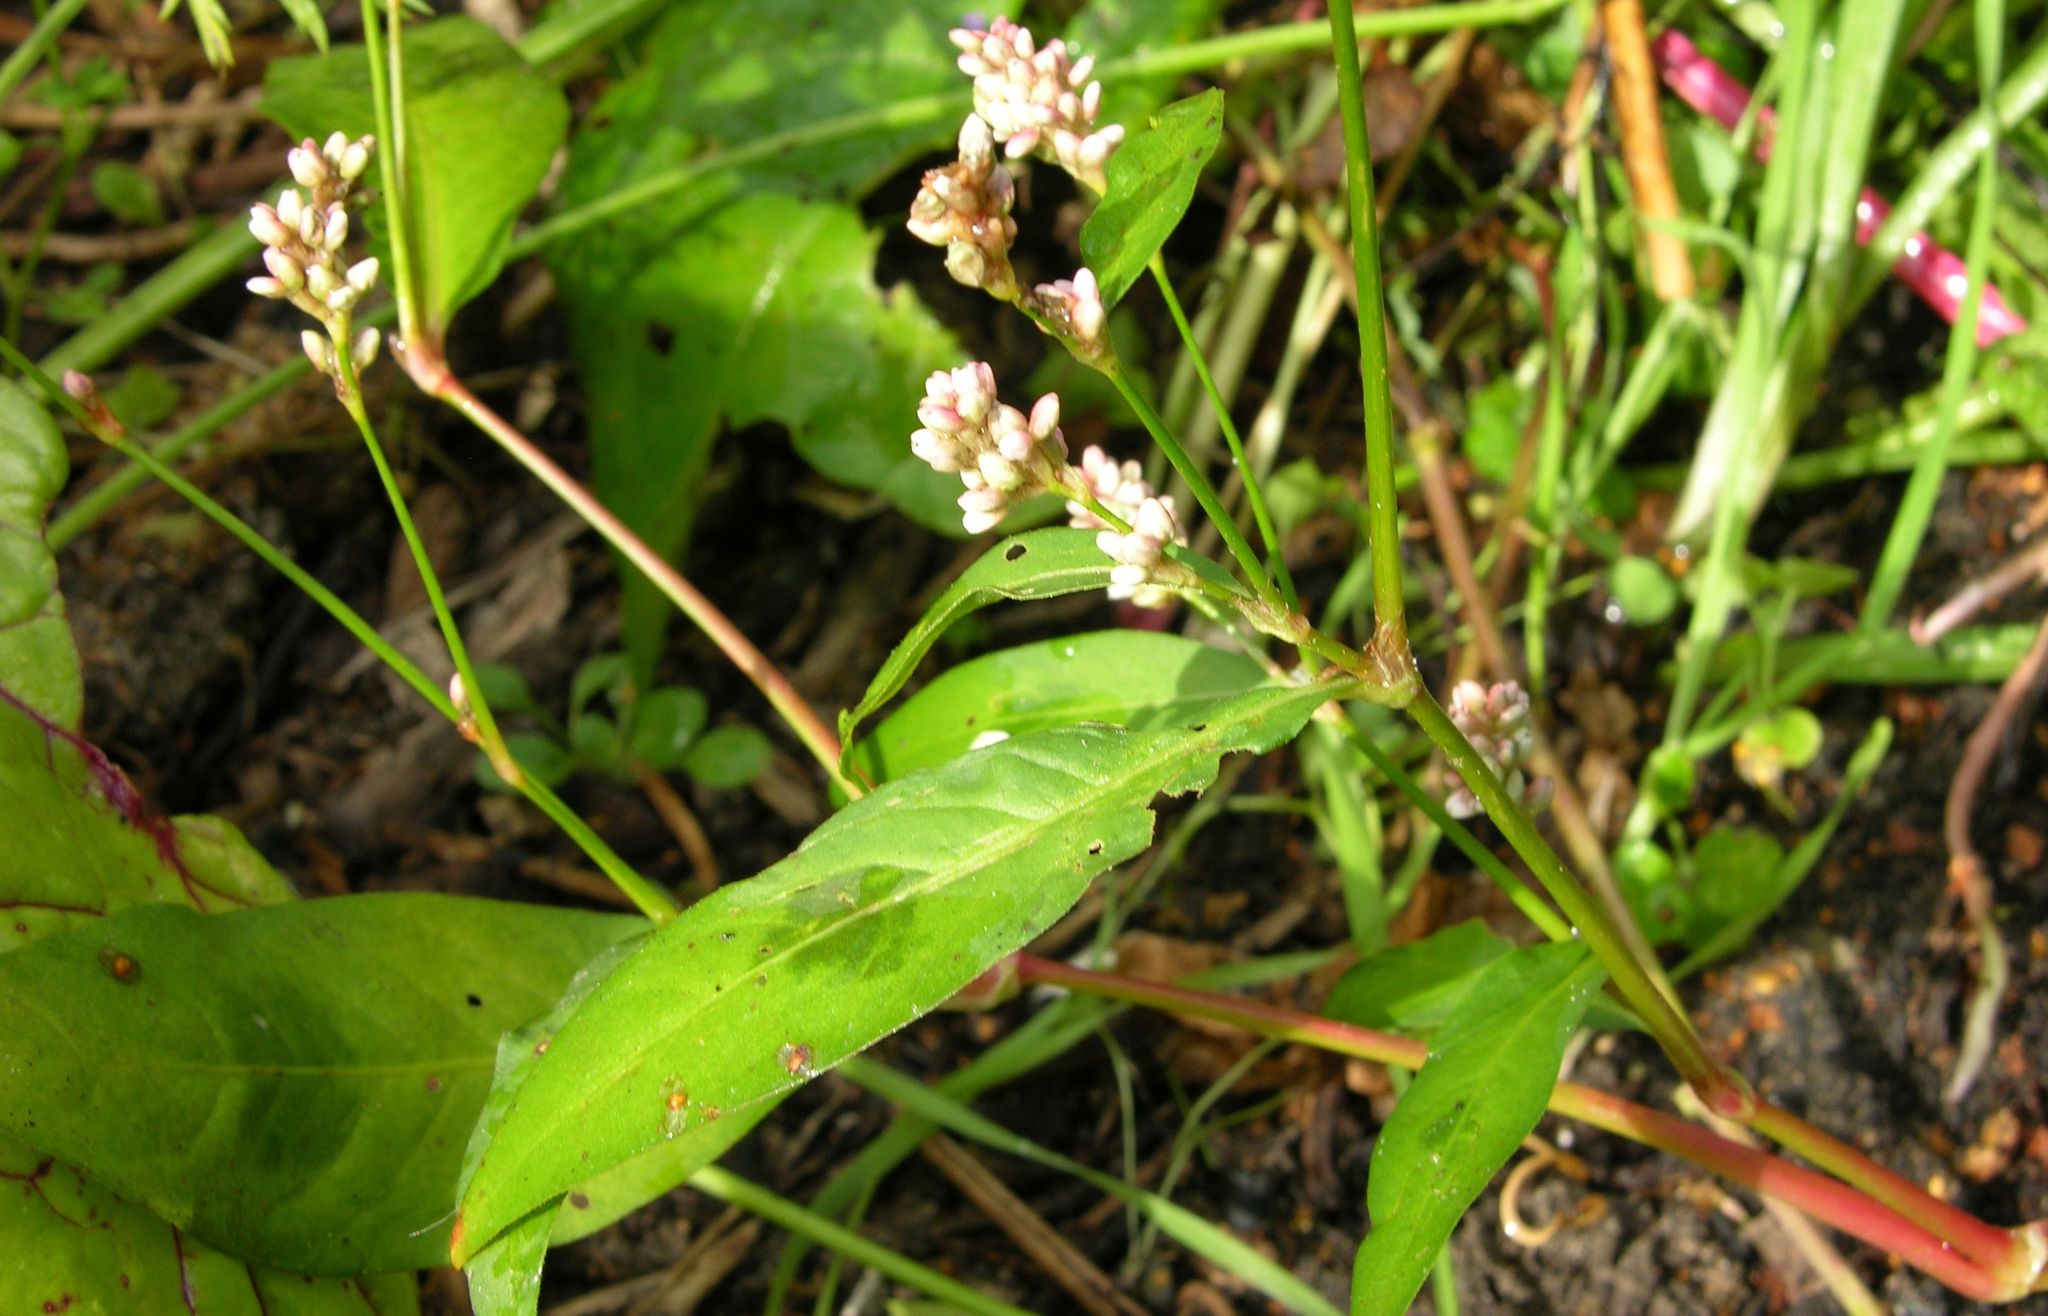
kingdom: Plantae
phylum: Tracheophyta
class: Magnoliopsida
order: Caryophyllales
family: Polygonaceae
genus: Persicaria
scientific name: Persicaria maculosa
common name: Redshank
